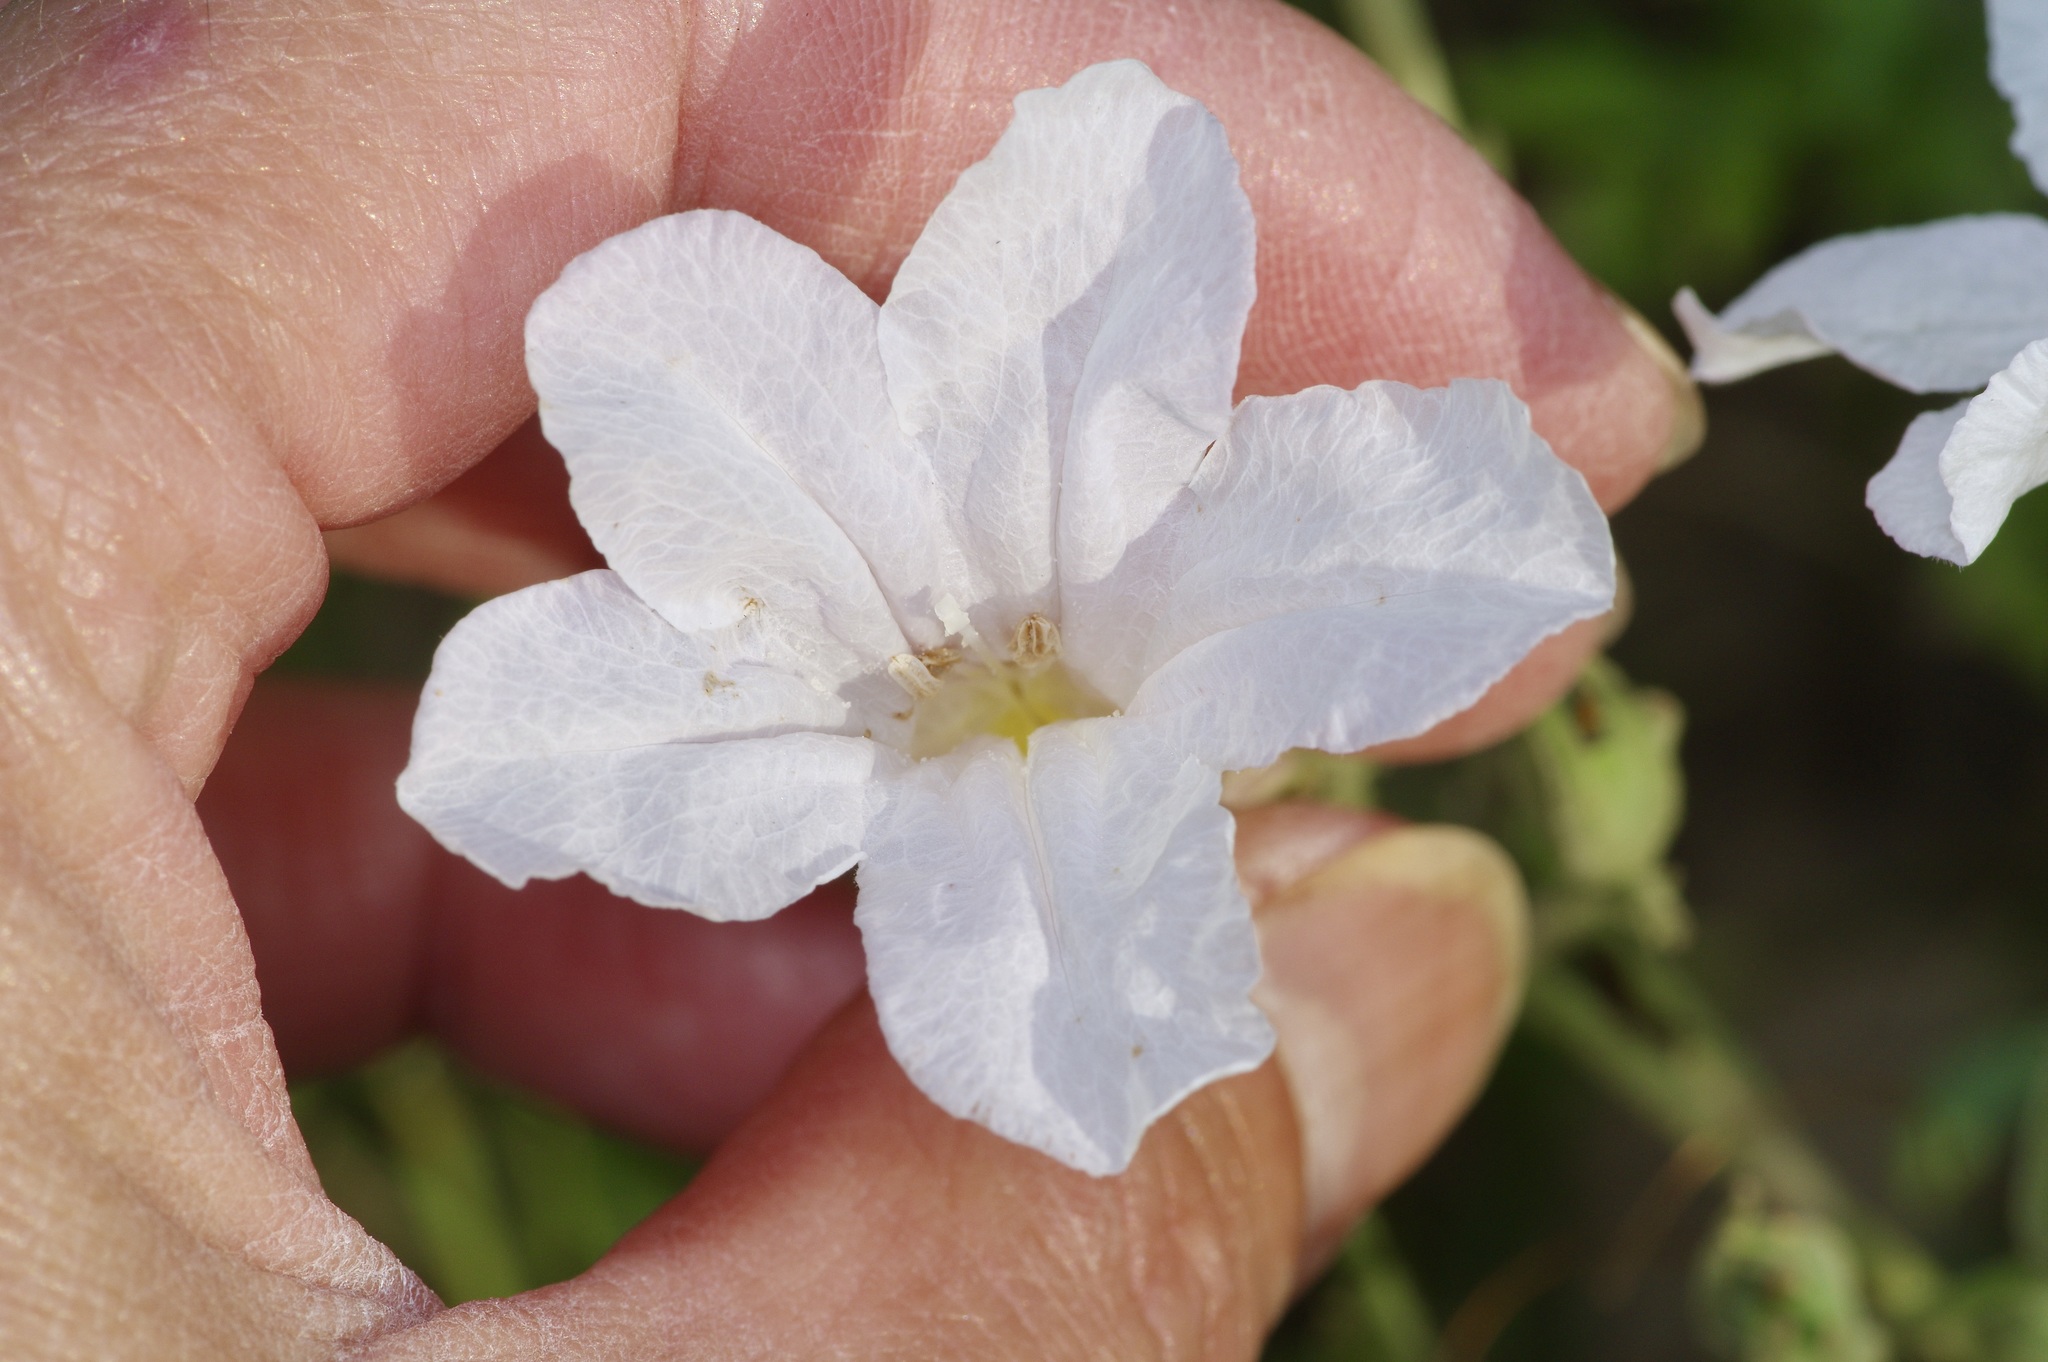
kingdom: Plantae
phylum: Tracheophyta
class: Magnoliopsida
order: Lamiales
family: Acanthaceae
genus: Ruellia
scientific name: Ruellia metziae
